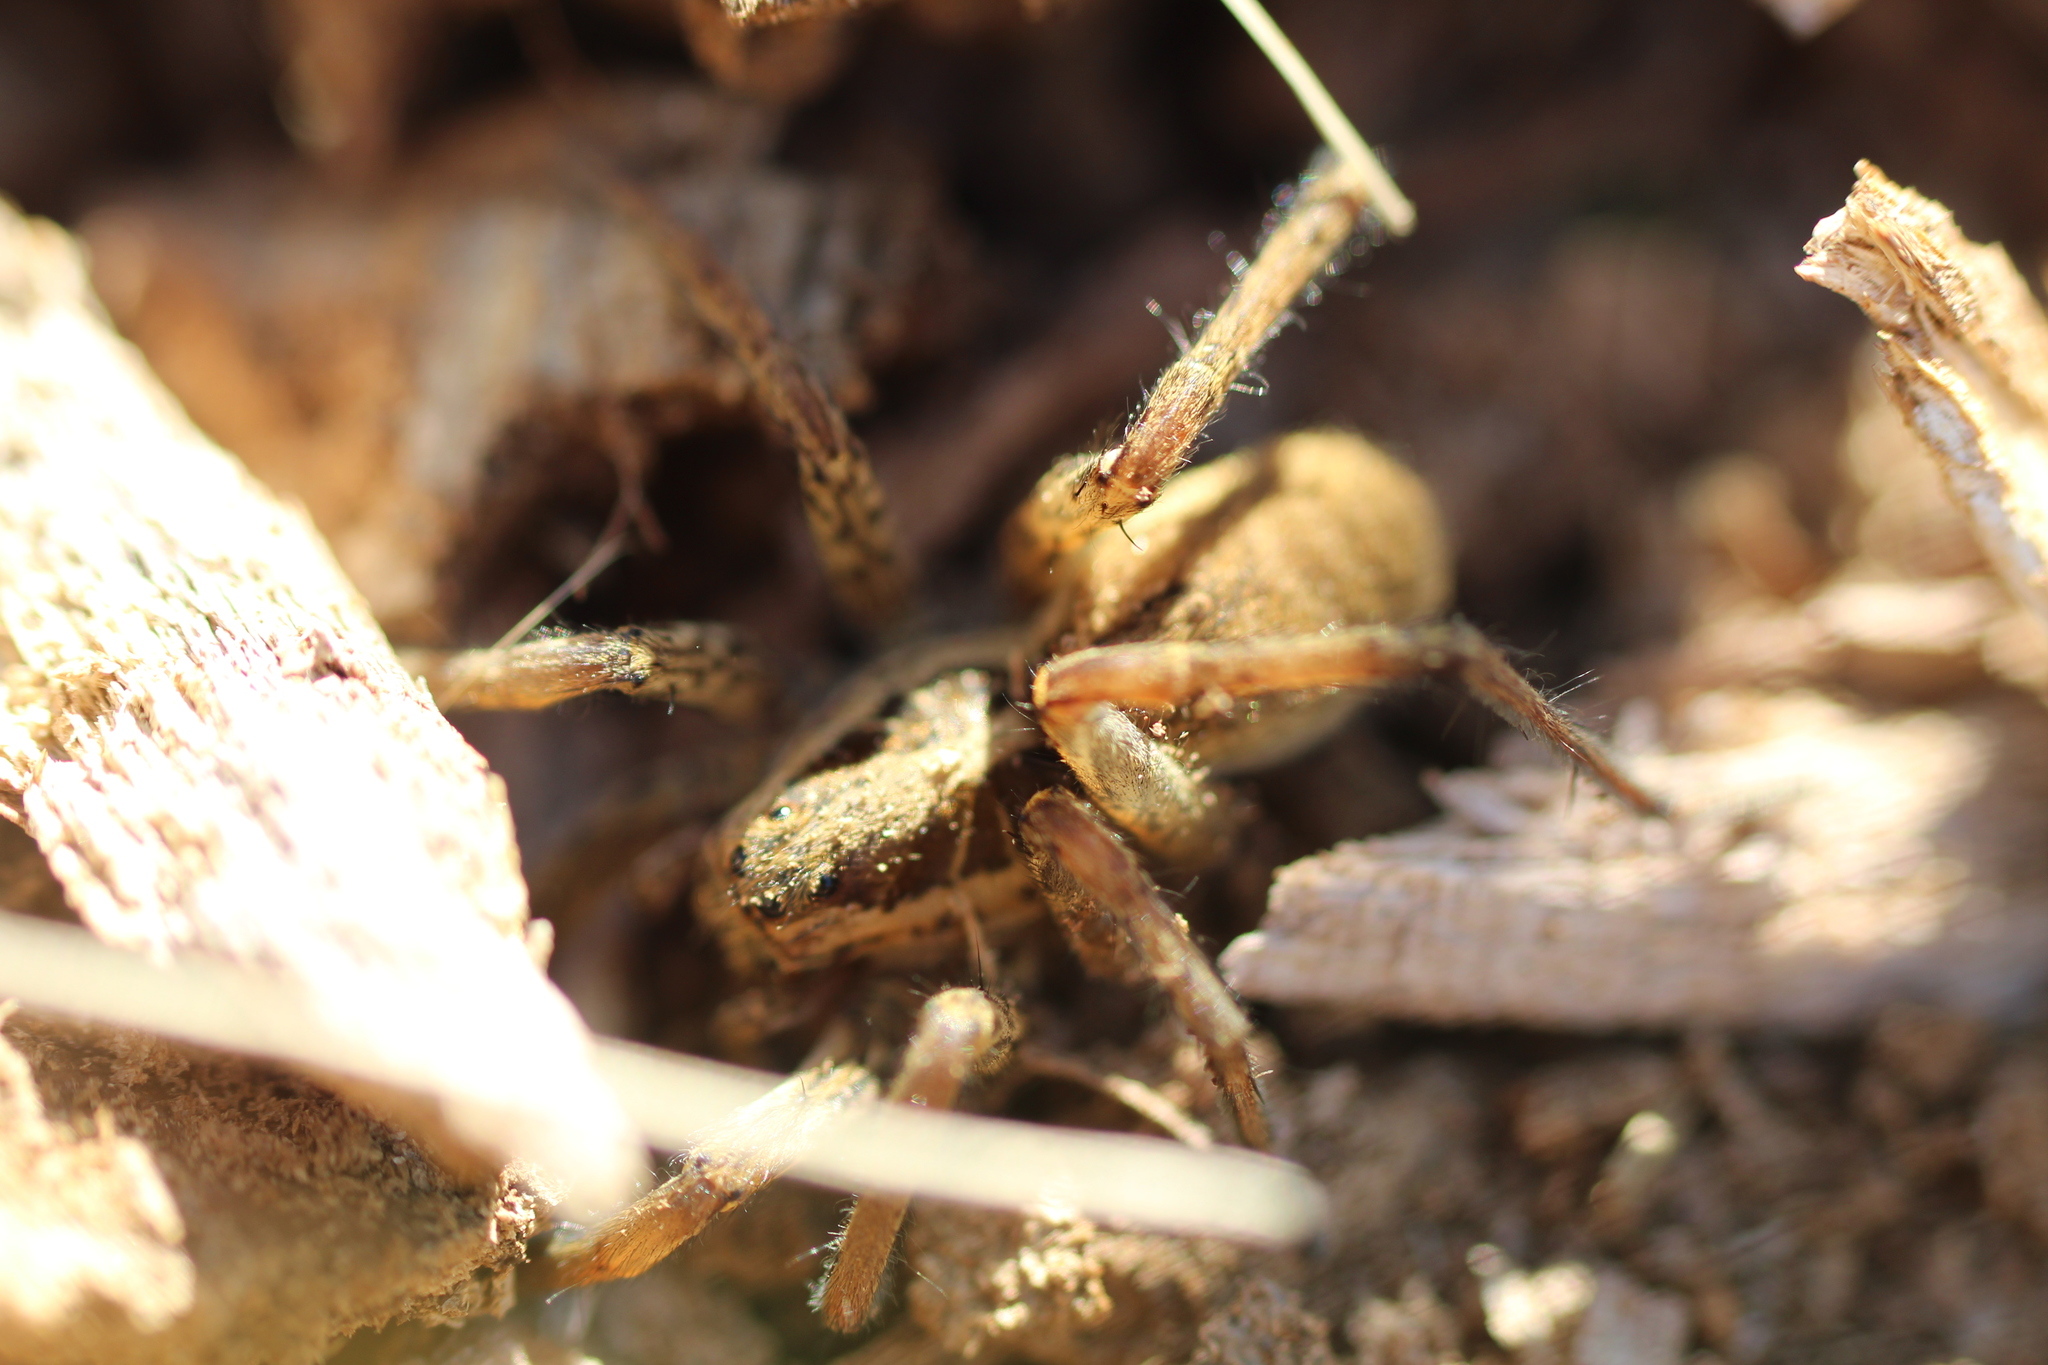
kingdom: Animalia
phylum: Arthropoda
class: Arachnida
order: Araneae
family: Lycosidae
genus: Hogna
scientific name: Hogna radiata
